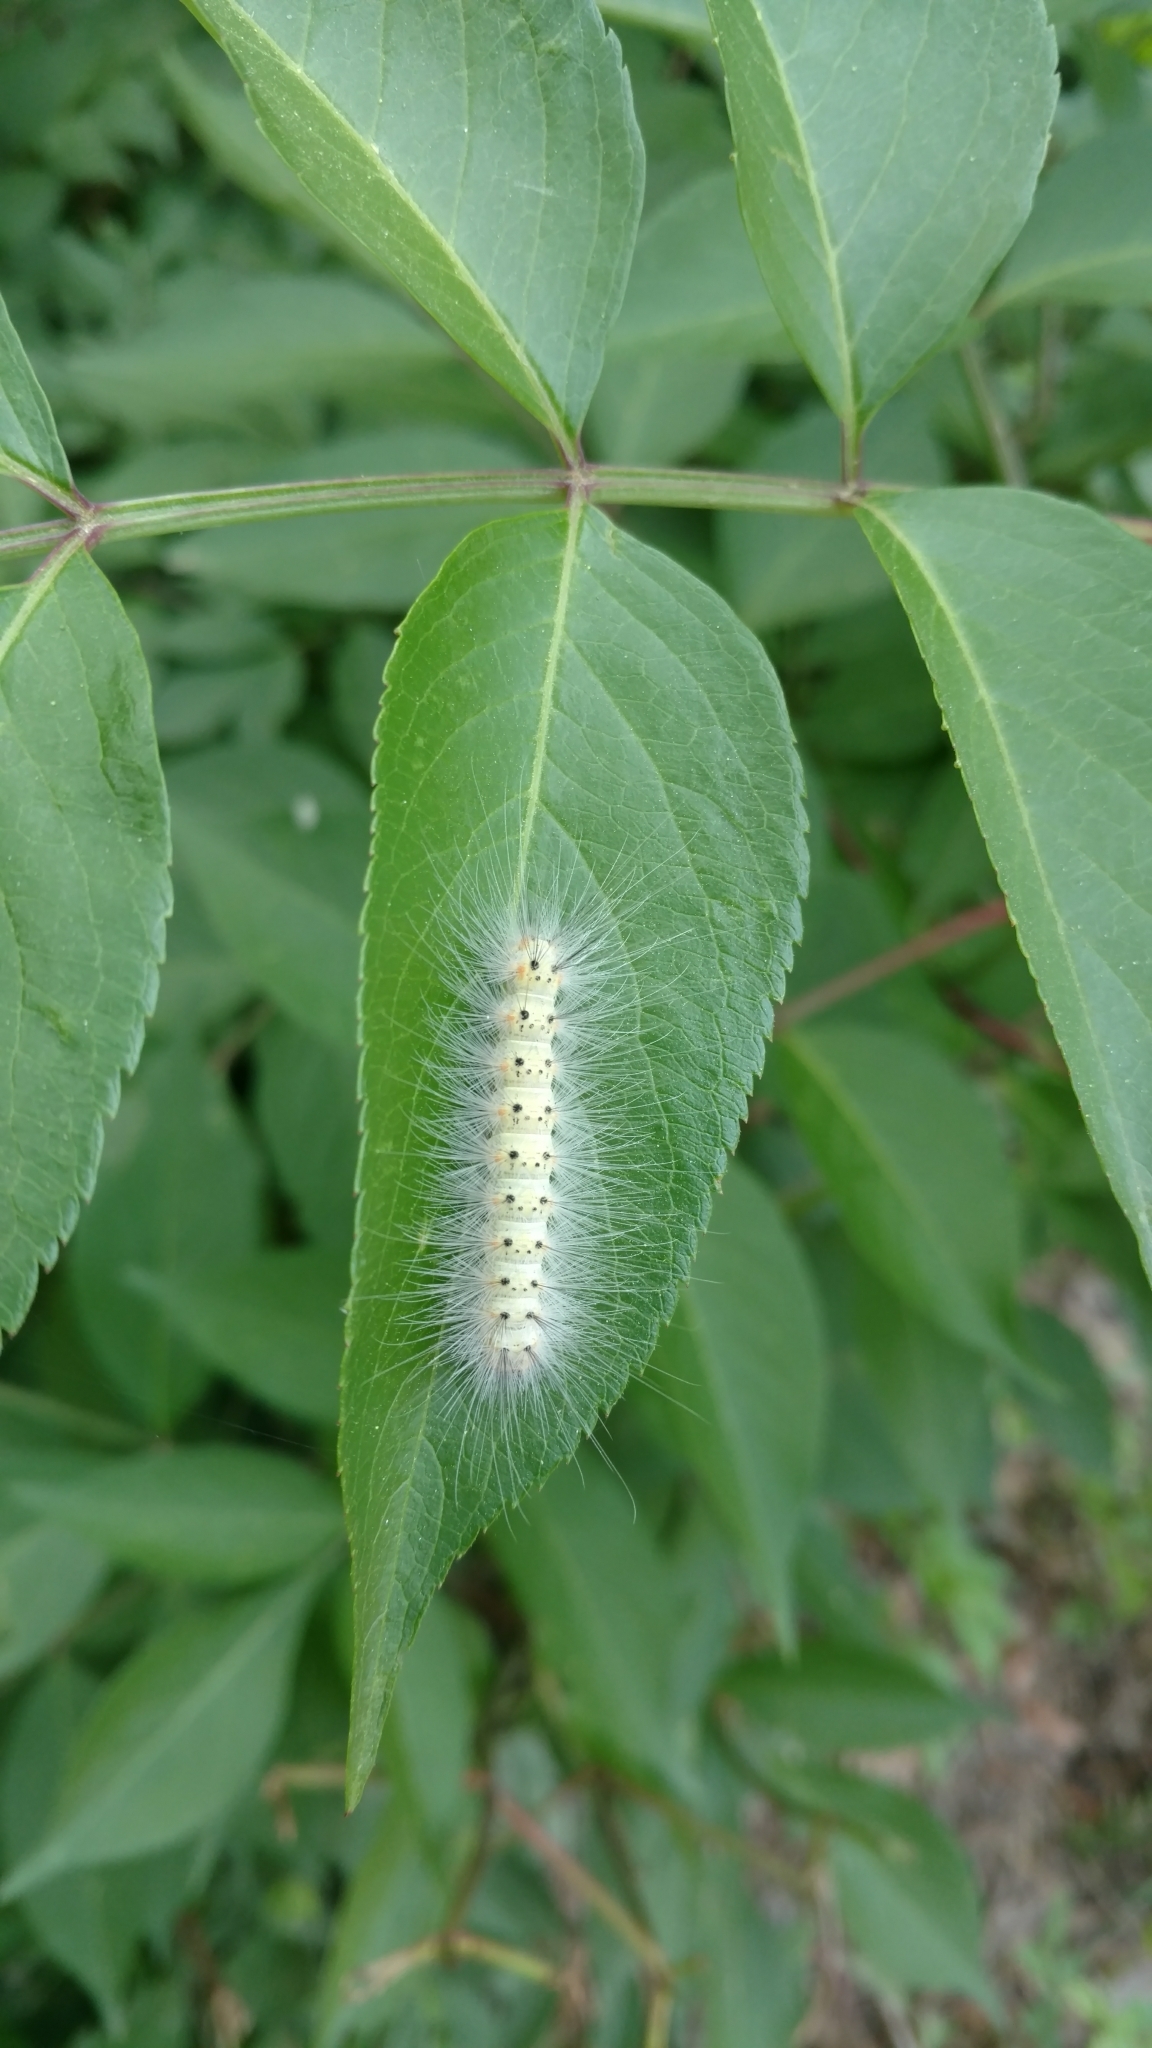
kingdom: Animalia
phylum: Arthropoda
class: Insecta
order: Lepidoptera
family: Erebidae
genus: Hyphantria
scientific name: Hyphantria cunea
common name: American white moth
